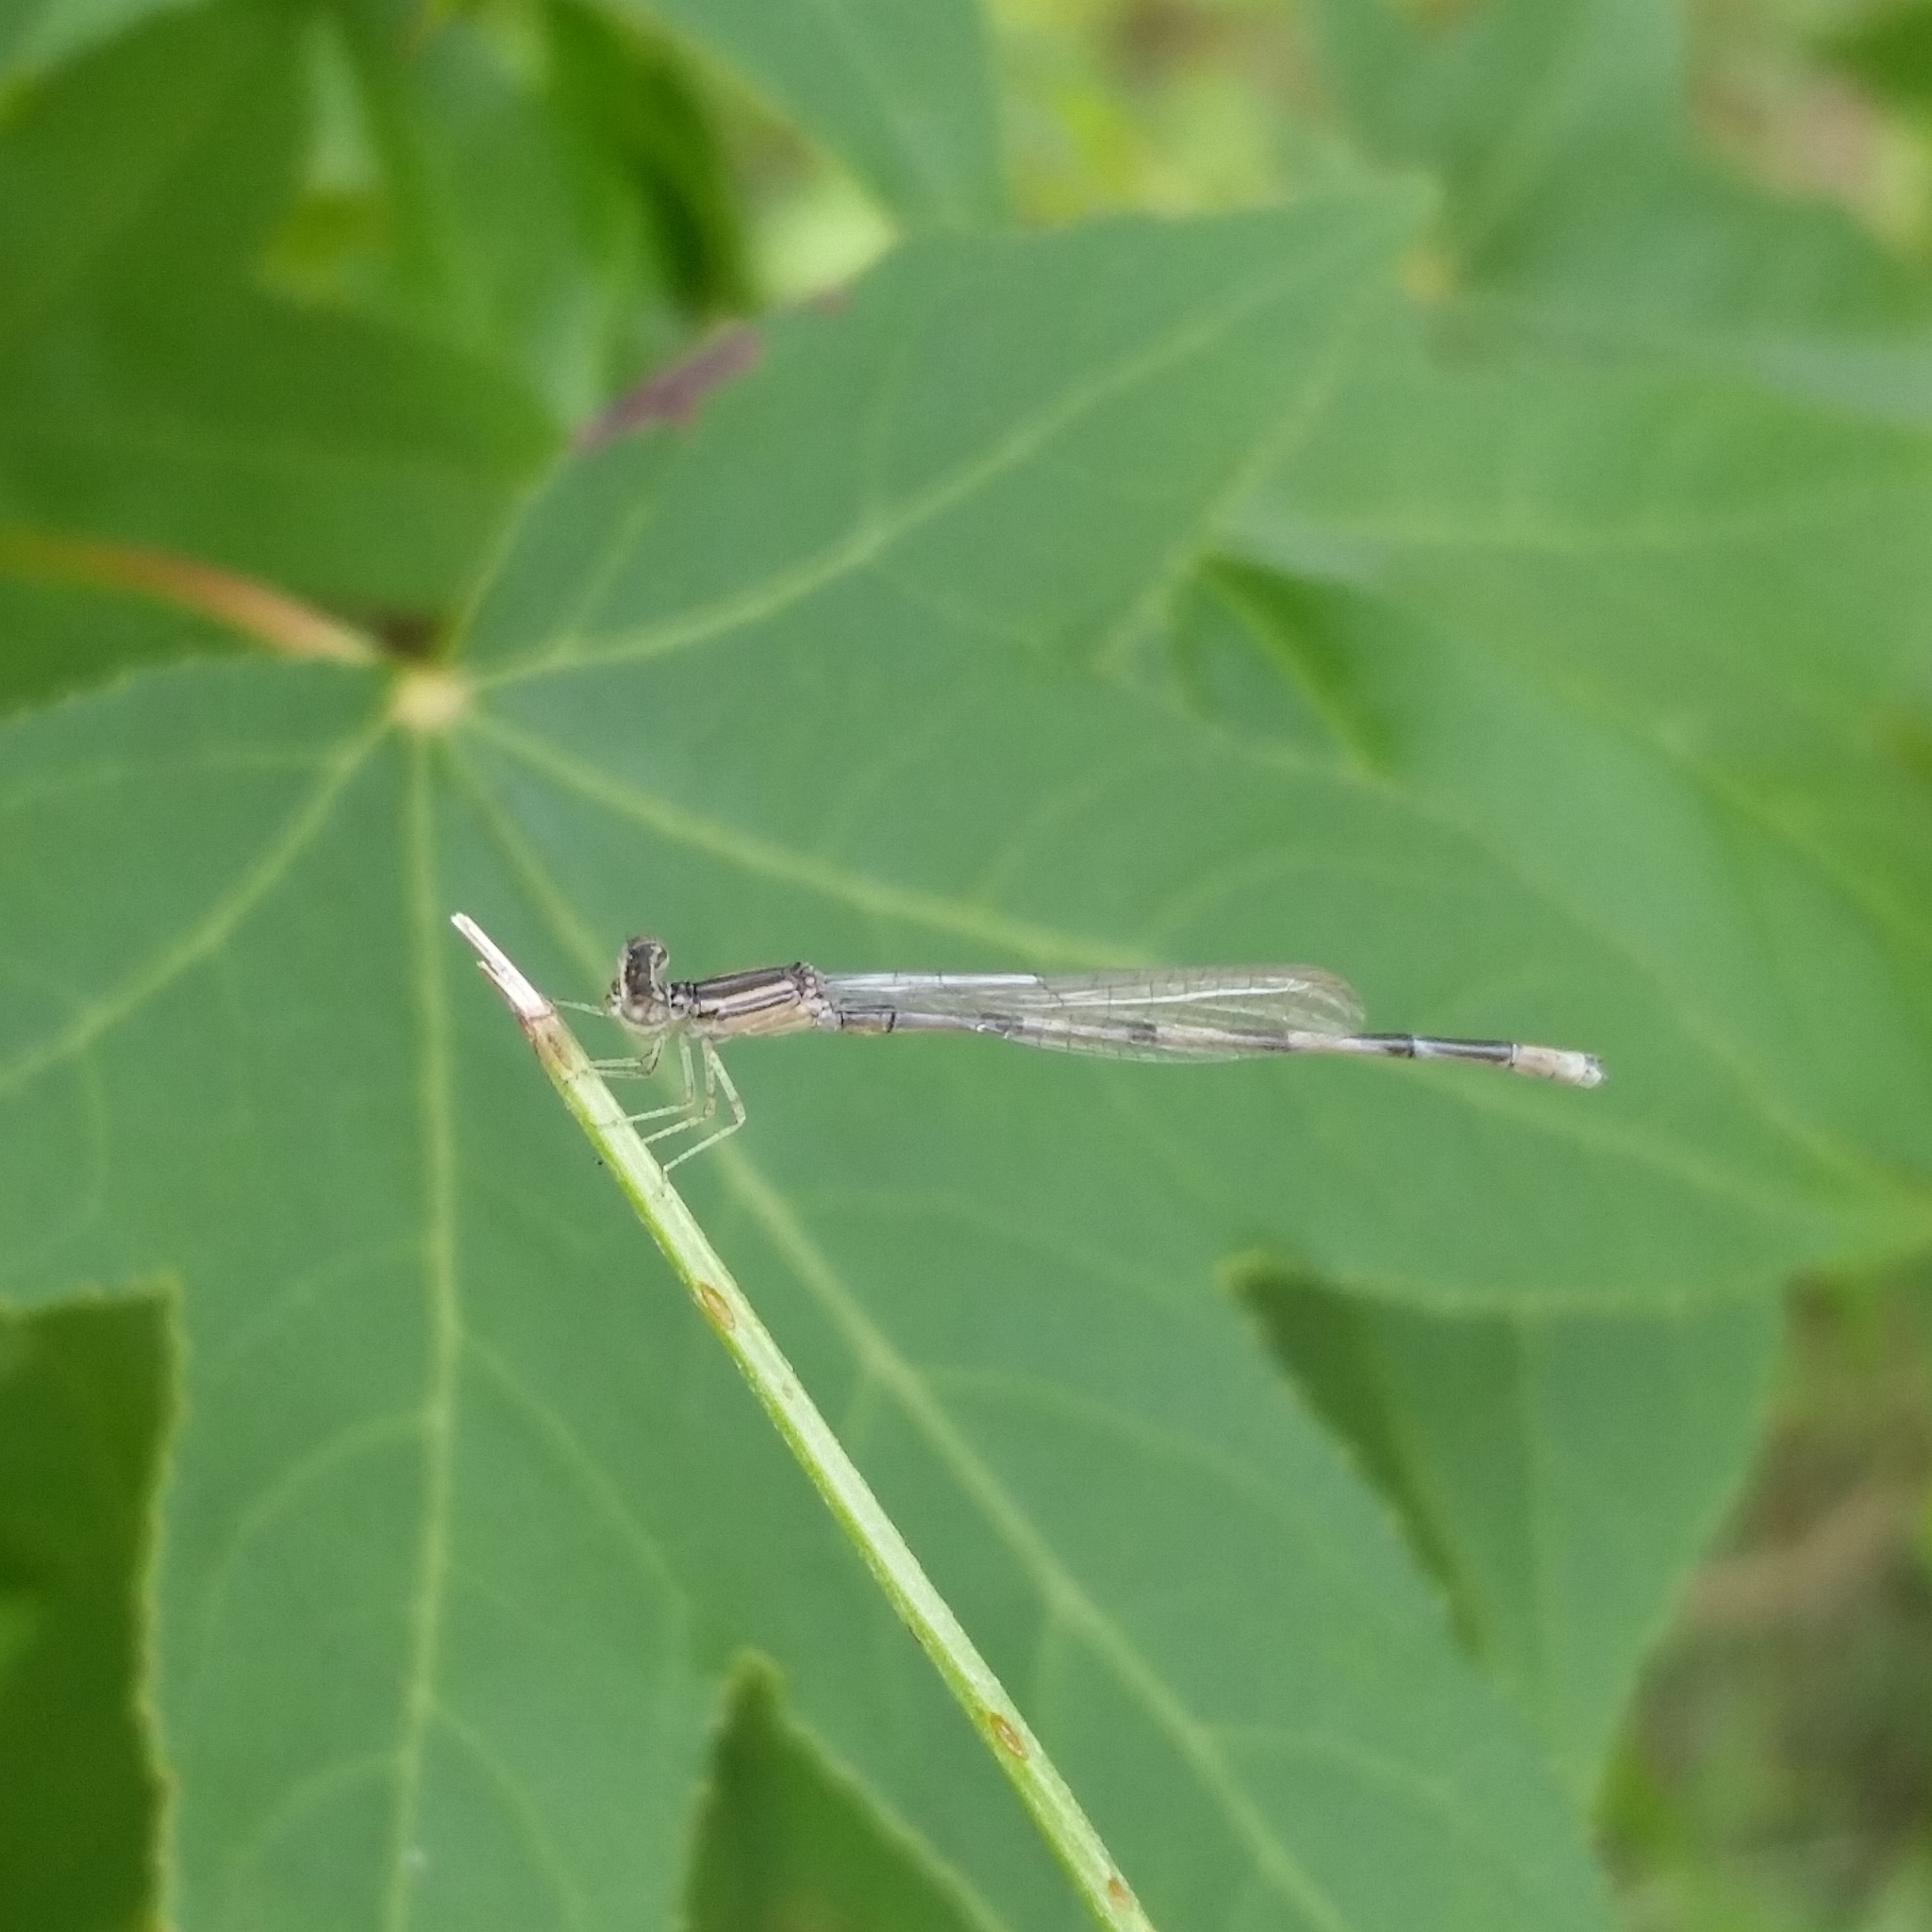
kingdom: Animalia
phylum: Arthropoda
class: Insecta
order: Odonata
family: Coenagrionidae
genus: Enallagma
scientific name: Enallagma basidens
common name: Double-striped bluet
